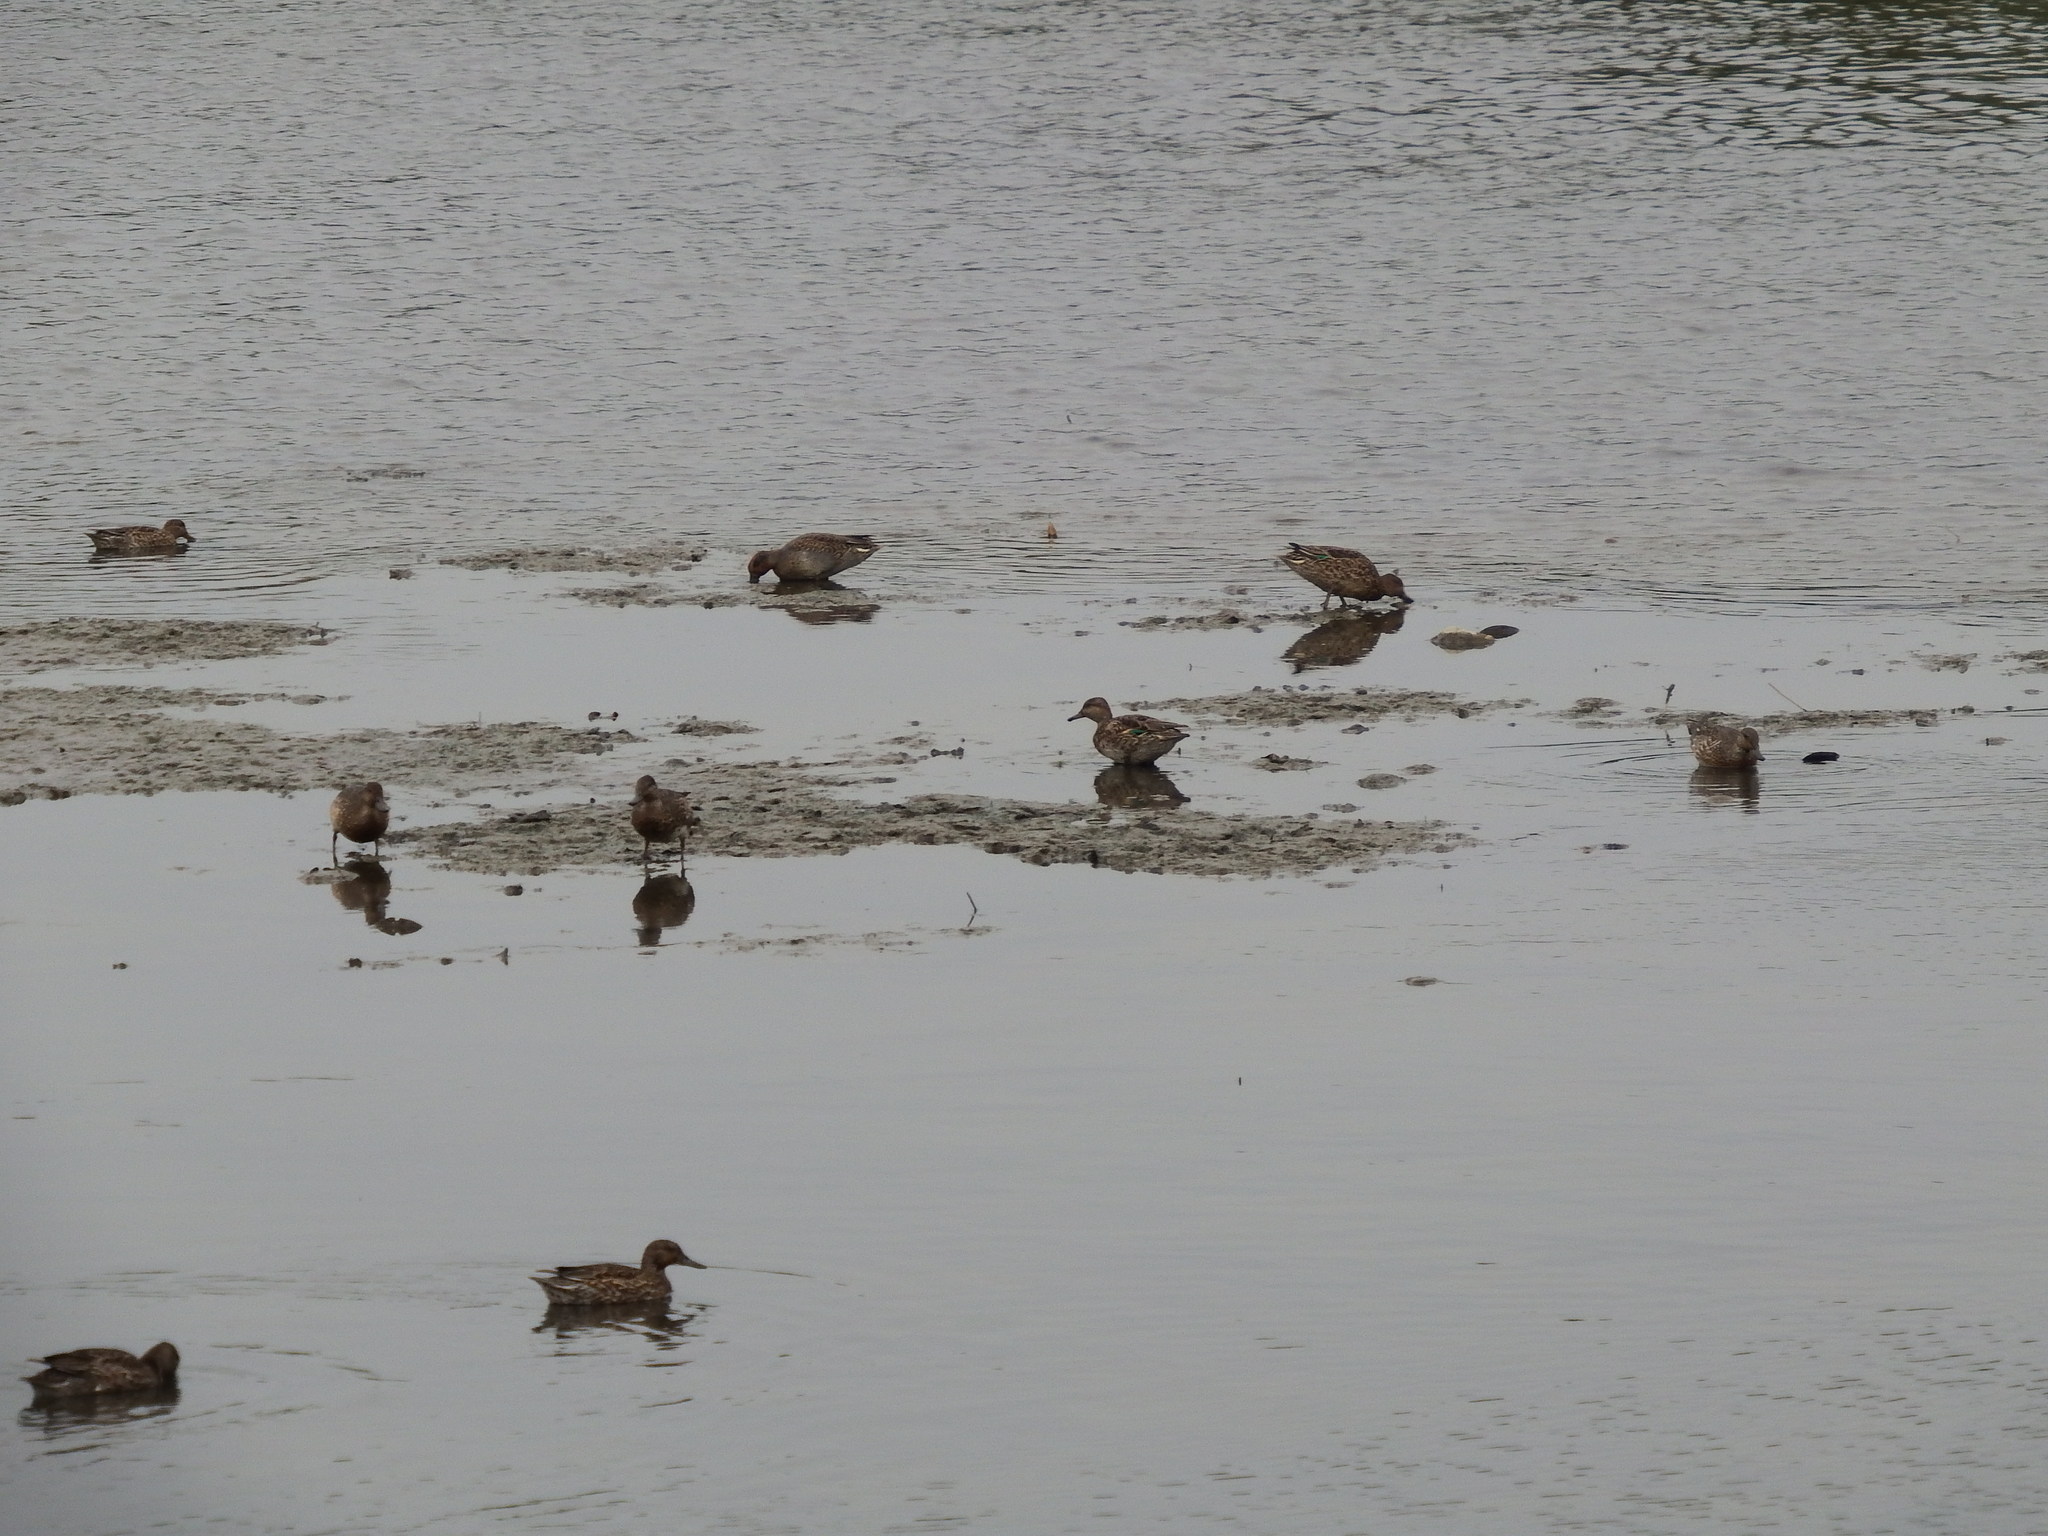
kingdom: Animalia
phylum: Chordata
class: Aves
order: Anseriformes
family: Anatidae
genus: Anas
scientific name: Anas crecca
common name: Eurasian teal
